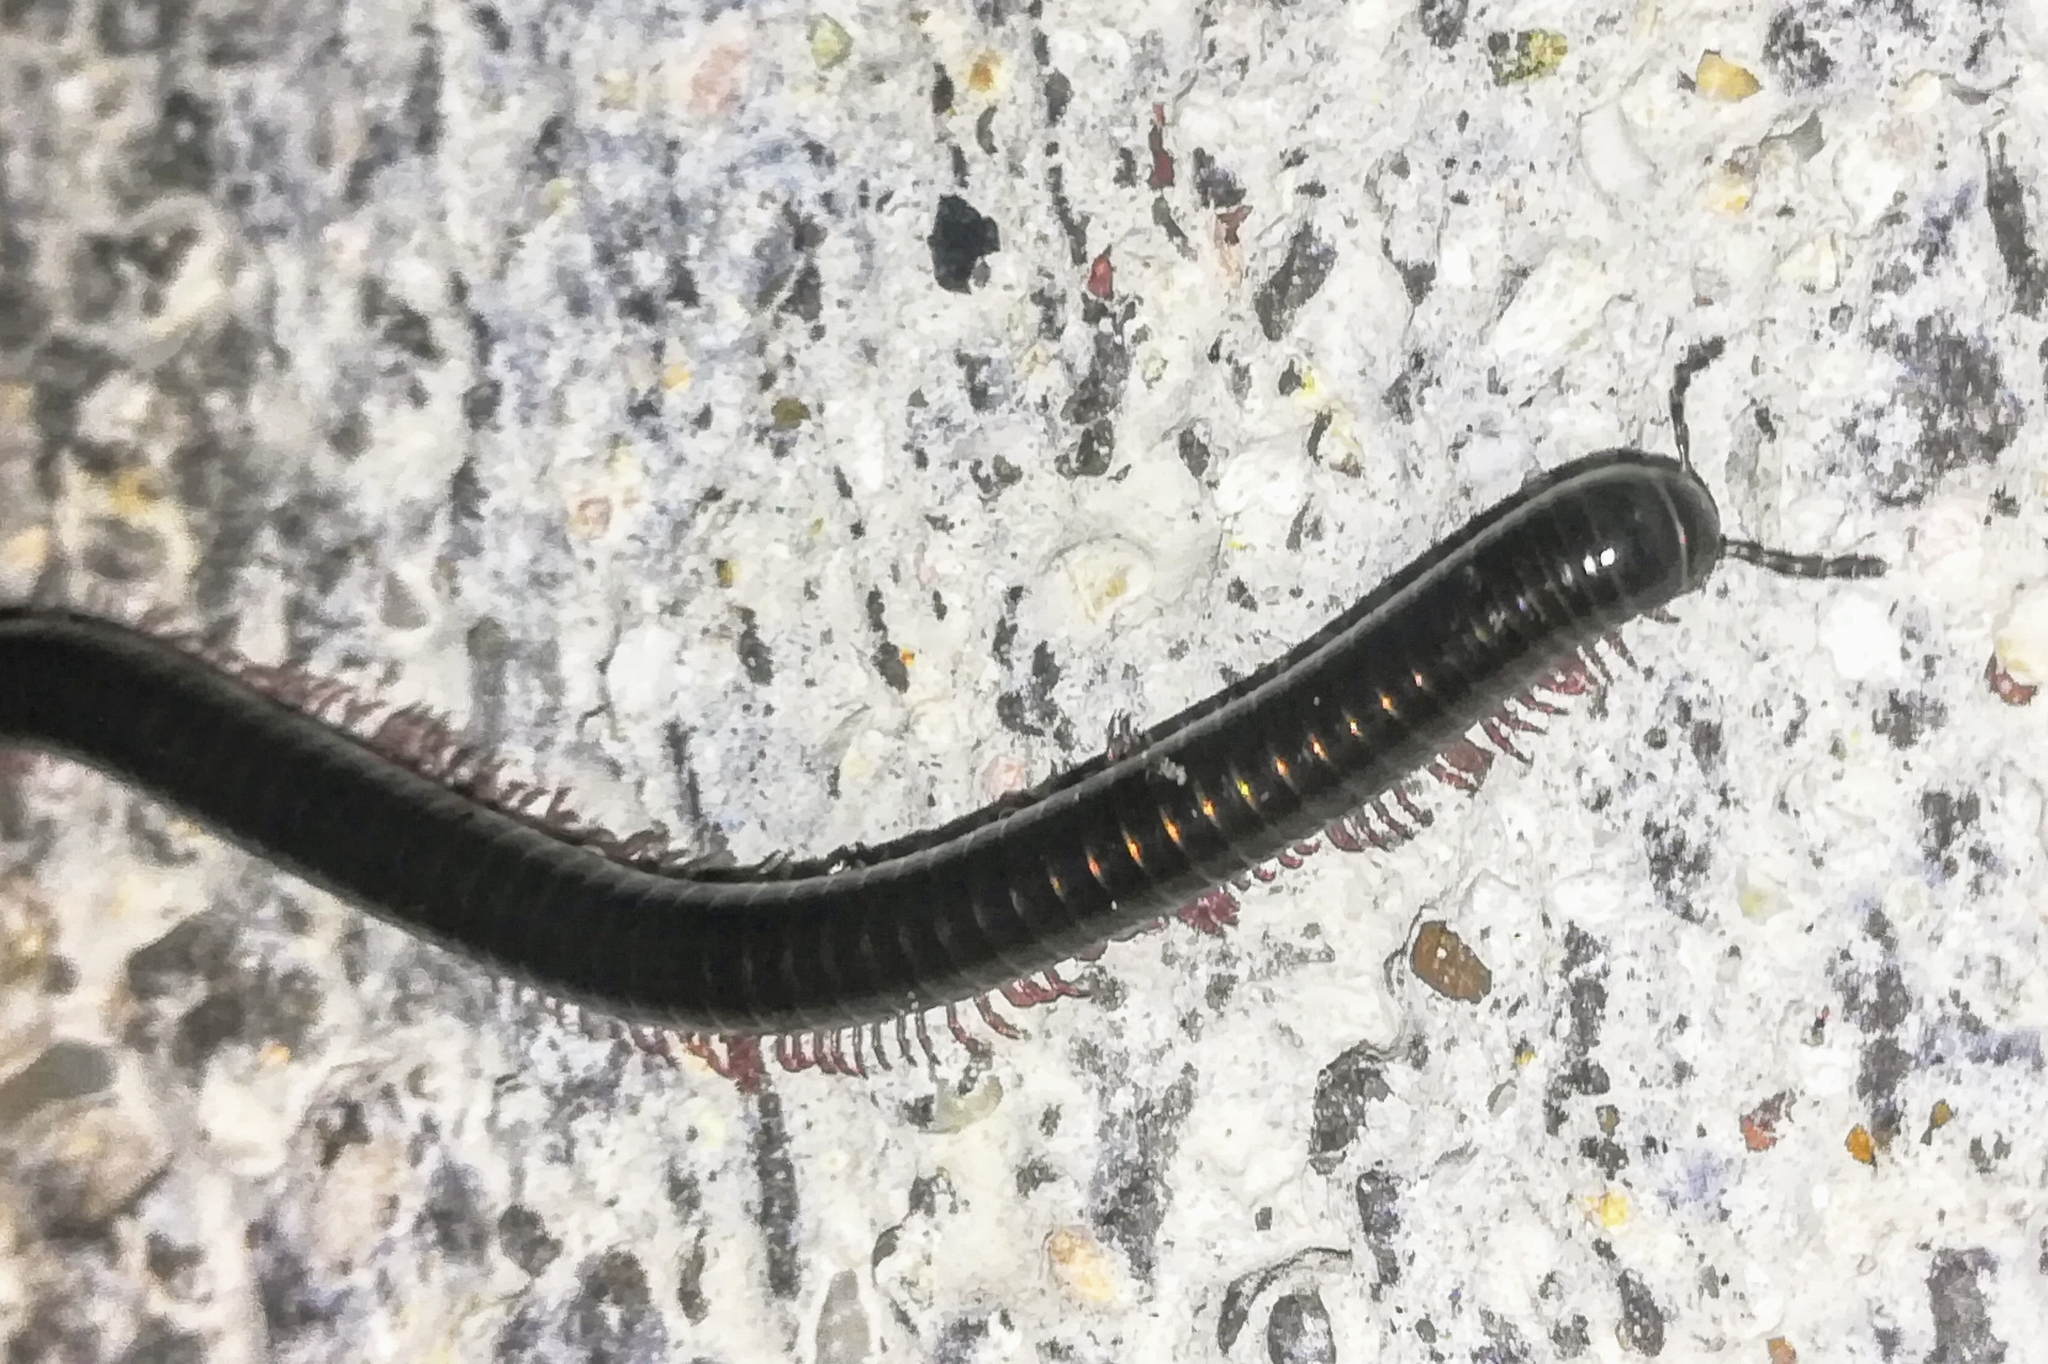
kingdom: Animalia
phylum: Arthropoda
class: Diplopoda
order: Julida
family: Julidae
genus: Pachyiulus
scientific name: Pachyiulus oenologus
